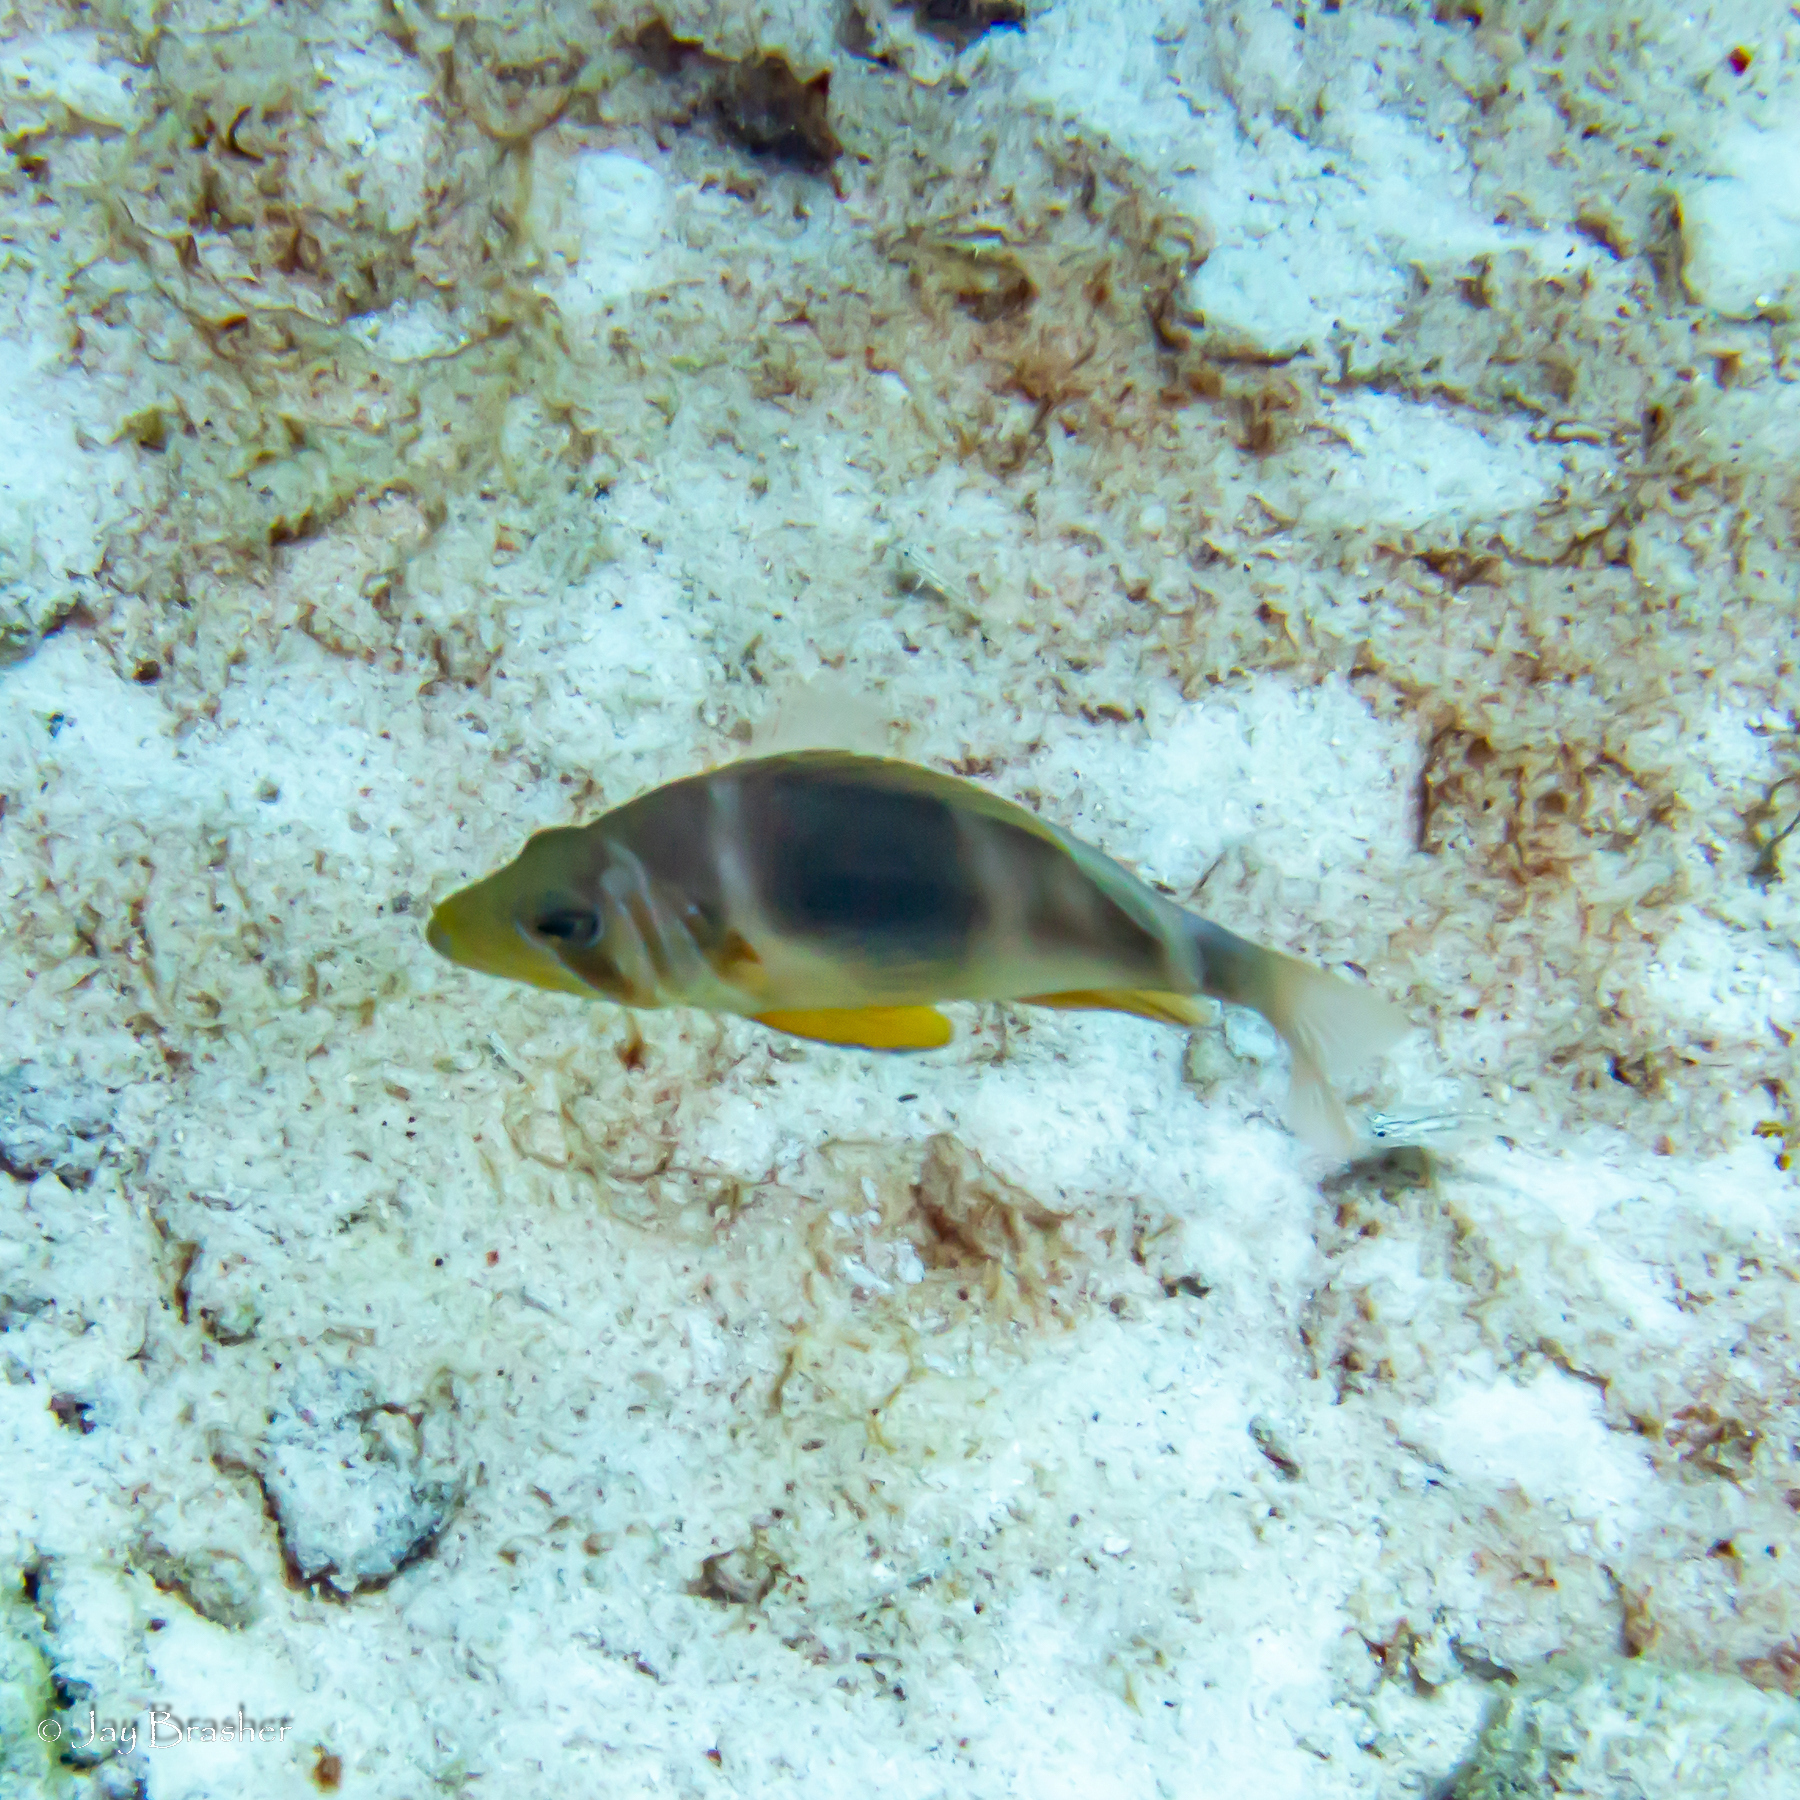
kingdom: Animalia
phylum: Chordata
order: Perciformes
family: Serranidae
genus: Hypoplectrus
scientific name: Hypoplectrus puella
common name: Barred hamlet
